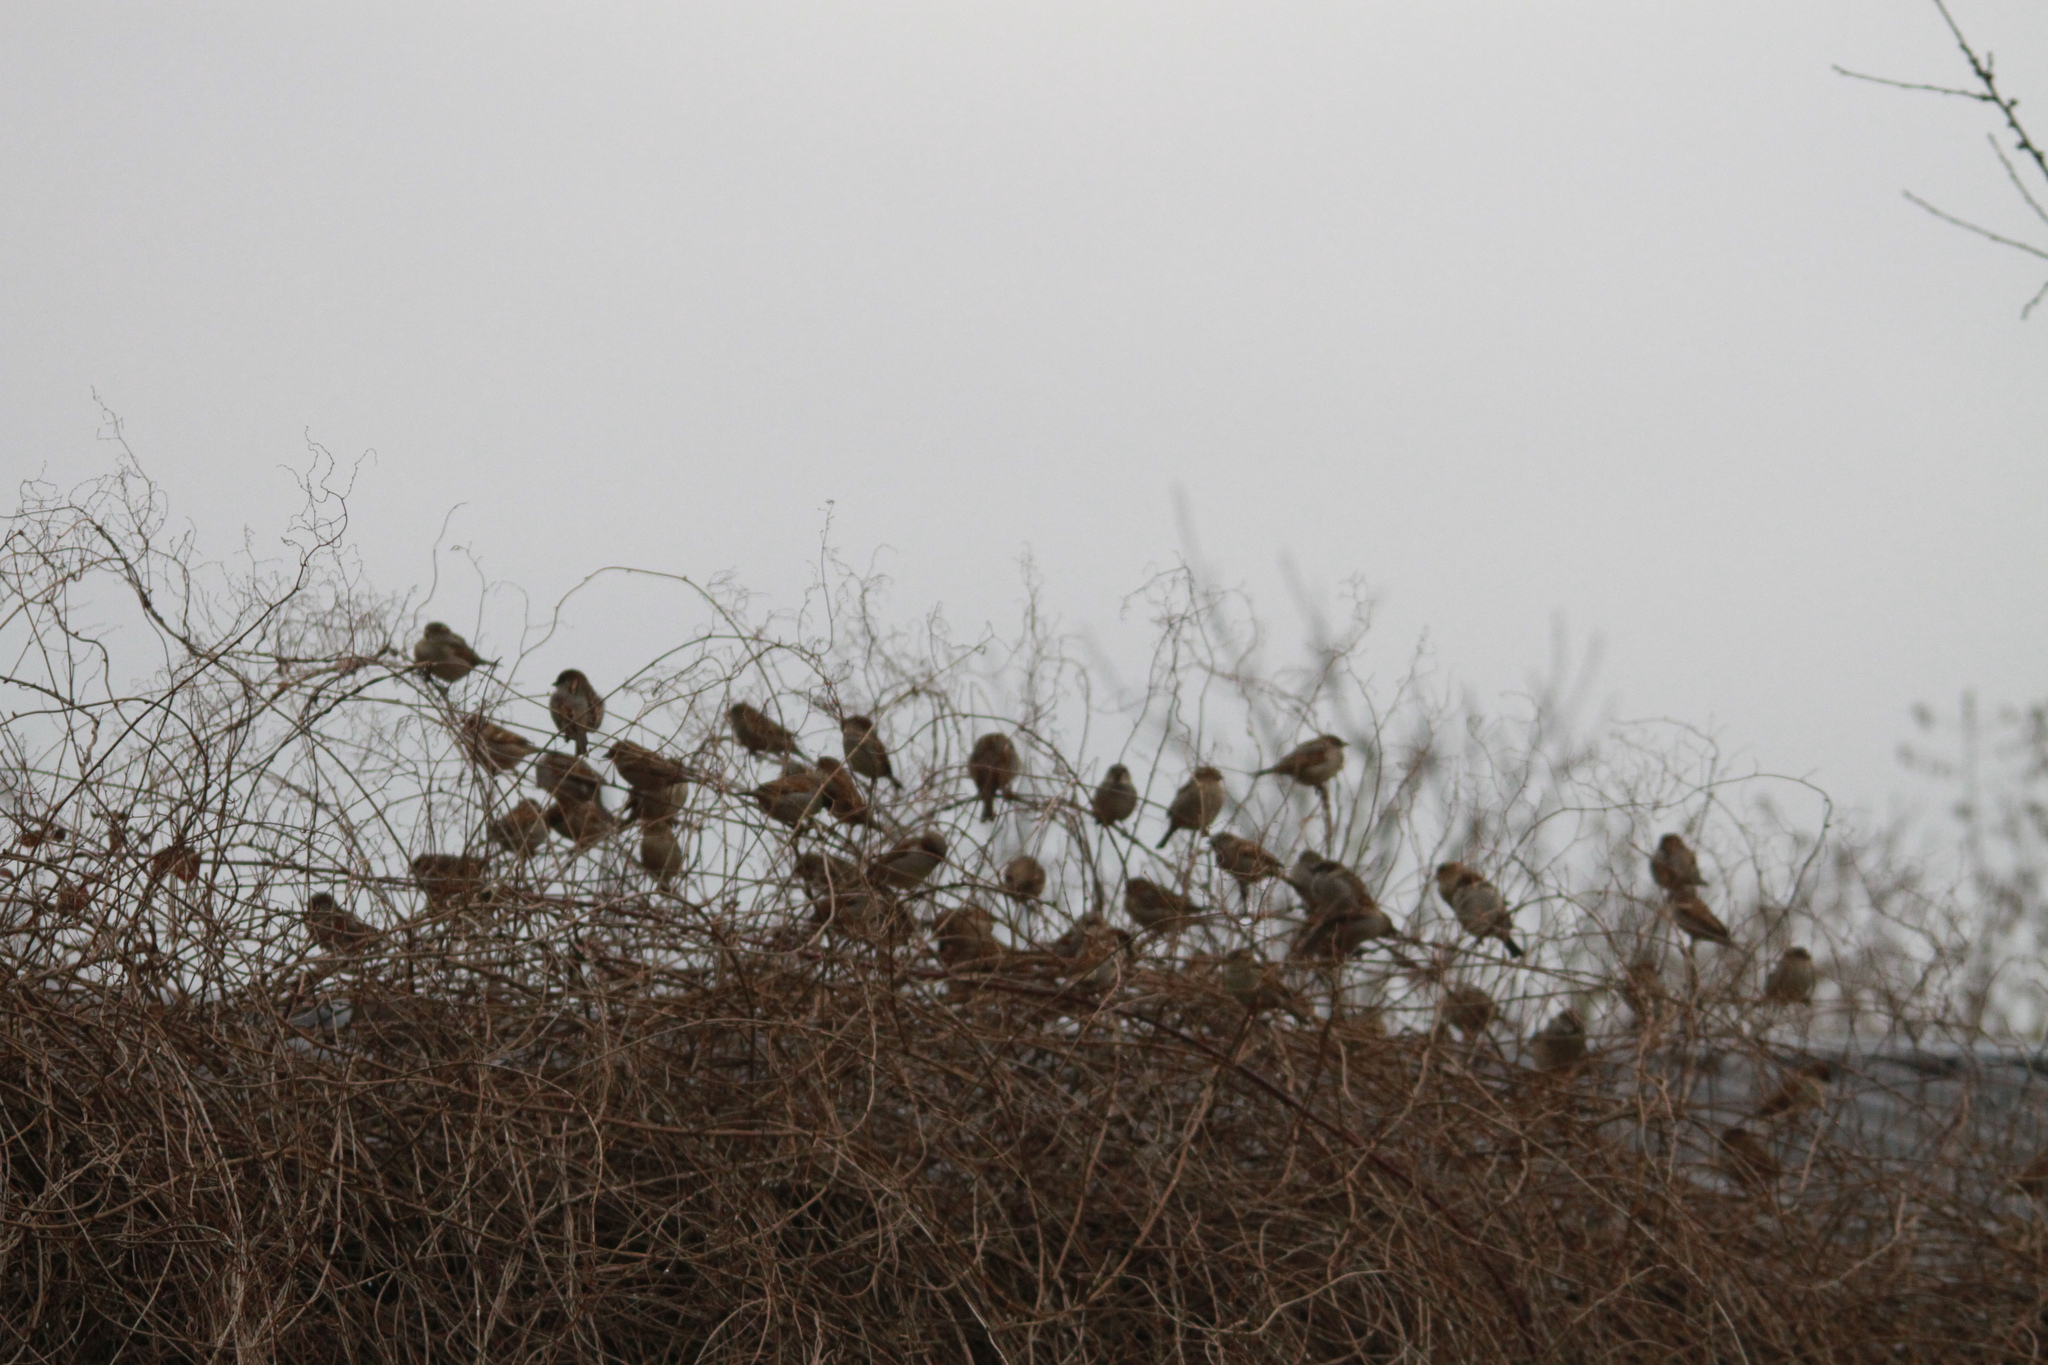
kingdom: Animalia
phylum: Chordata
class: Aves
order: Passeriformes
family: Passeridae
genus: Passer
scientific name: Passer domesticus
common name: House sparrow
